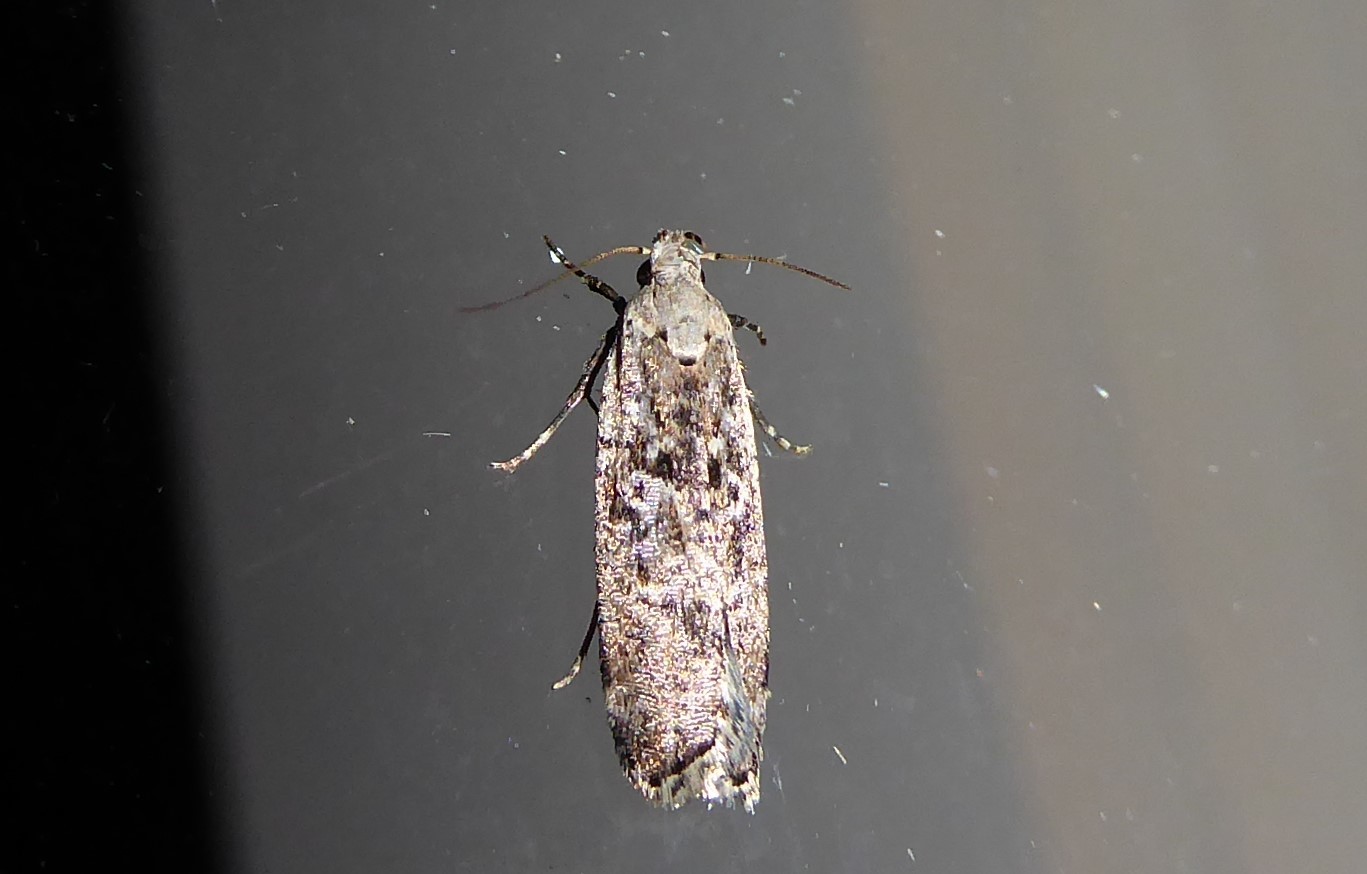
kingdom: Animalia
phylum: Arthropoda
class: Insecta
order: Lepidoptera
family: Gelechiidae
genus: Anisoplaca
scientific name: Anisoplaca achyrota
